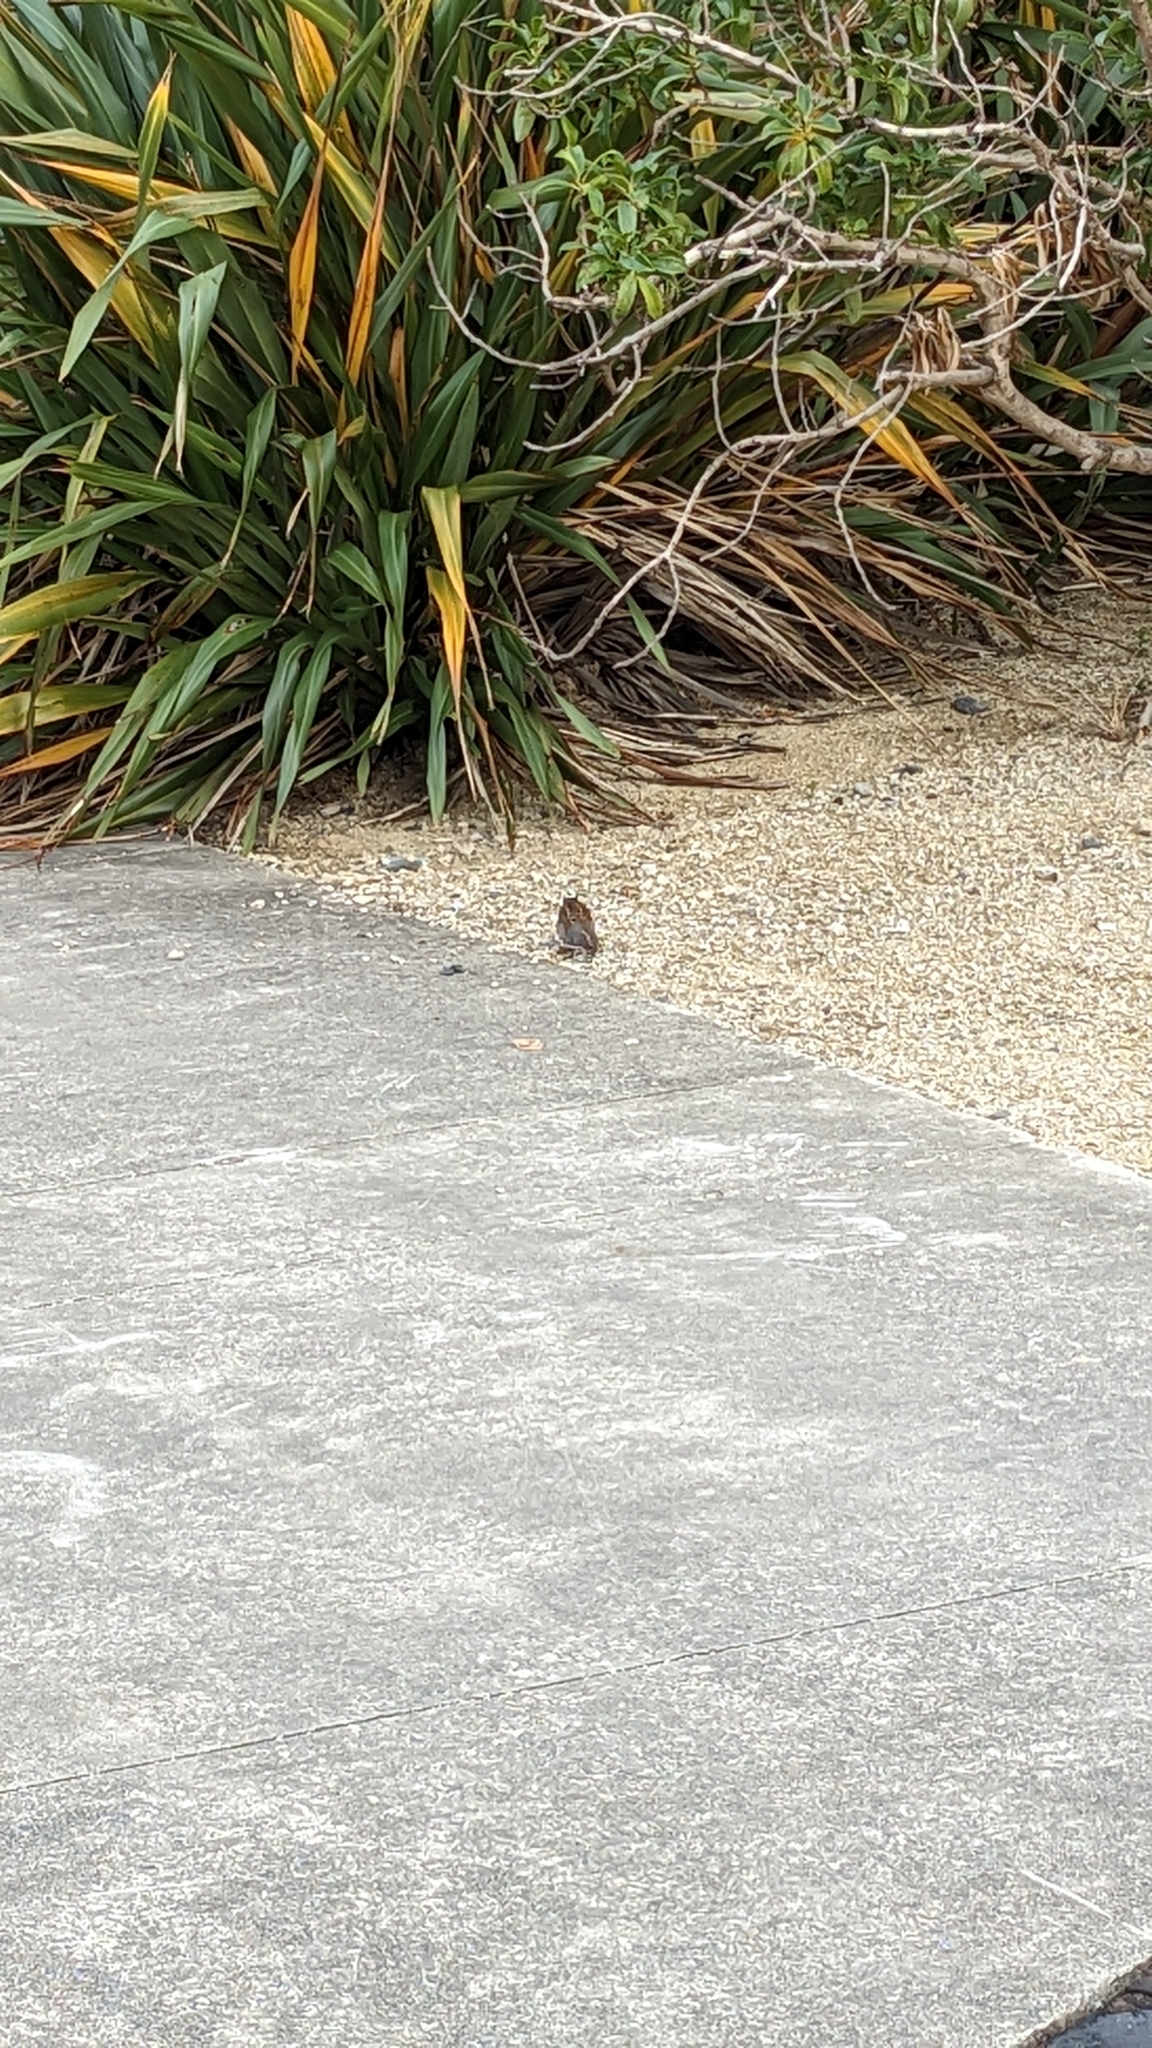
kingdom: Animalia
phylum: Chordata
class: Aves
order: Passeriformes
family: Prunellidae
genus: Prunella
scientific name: Prunella modularis
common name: Dunnock
